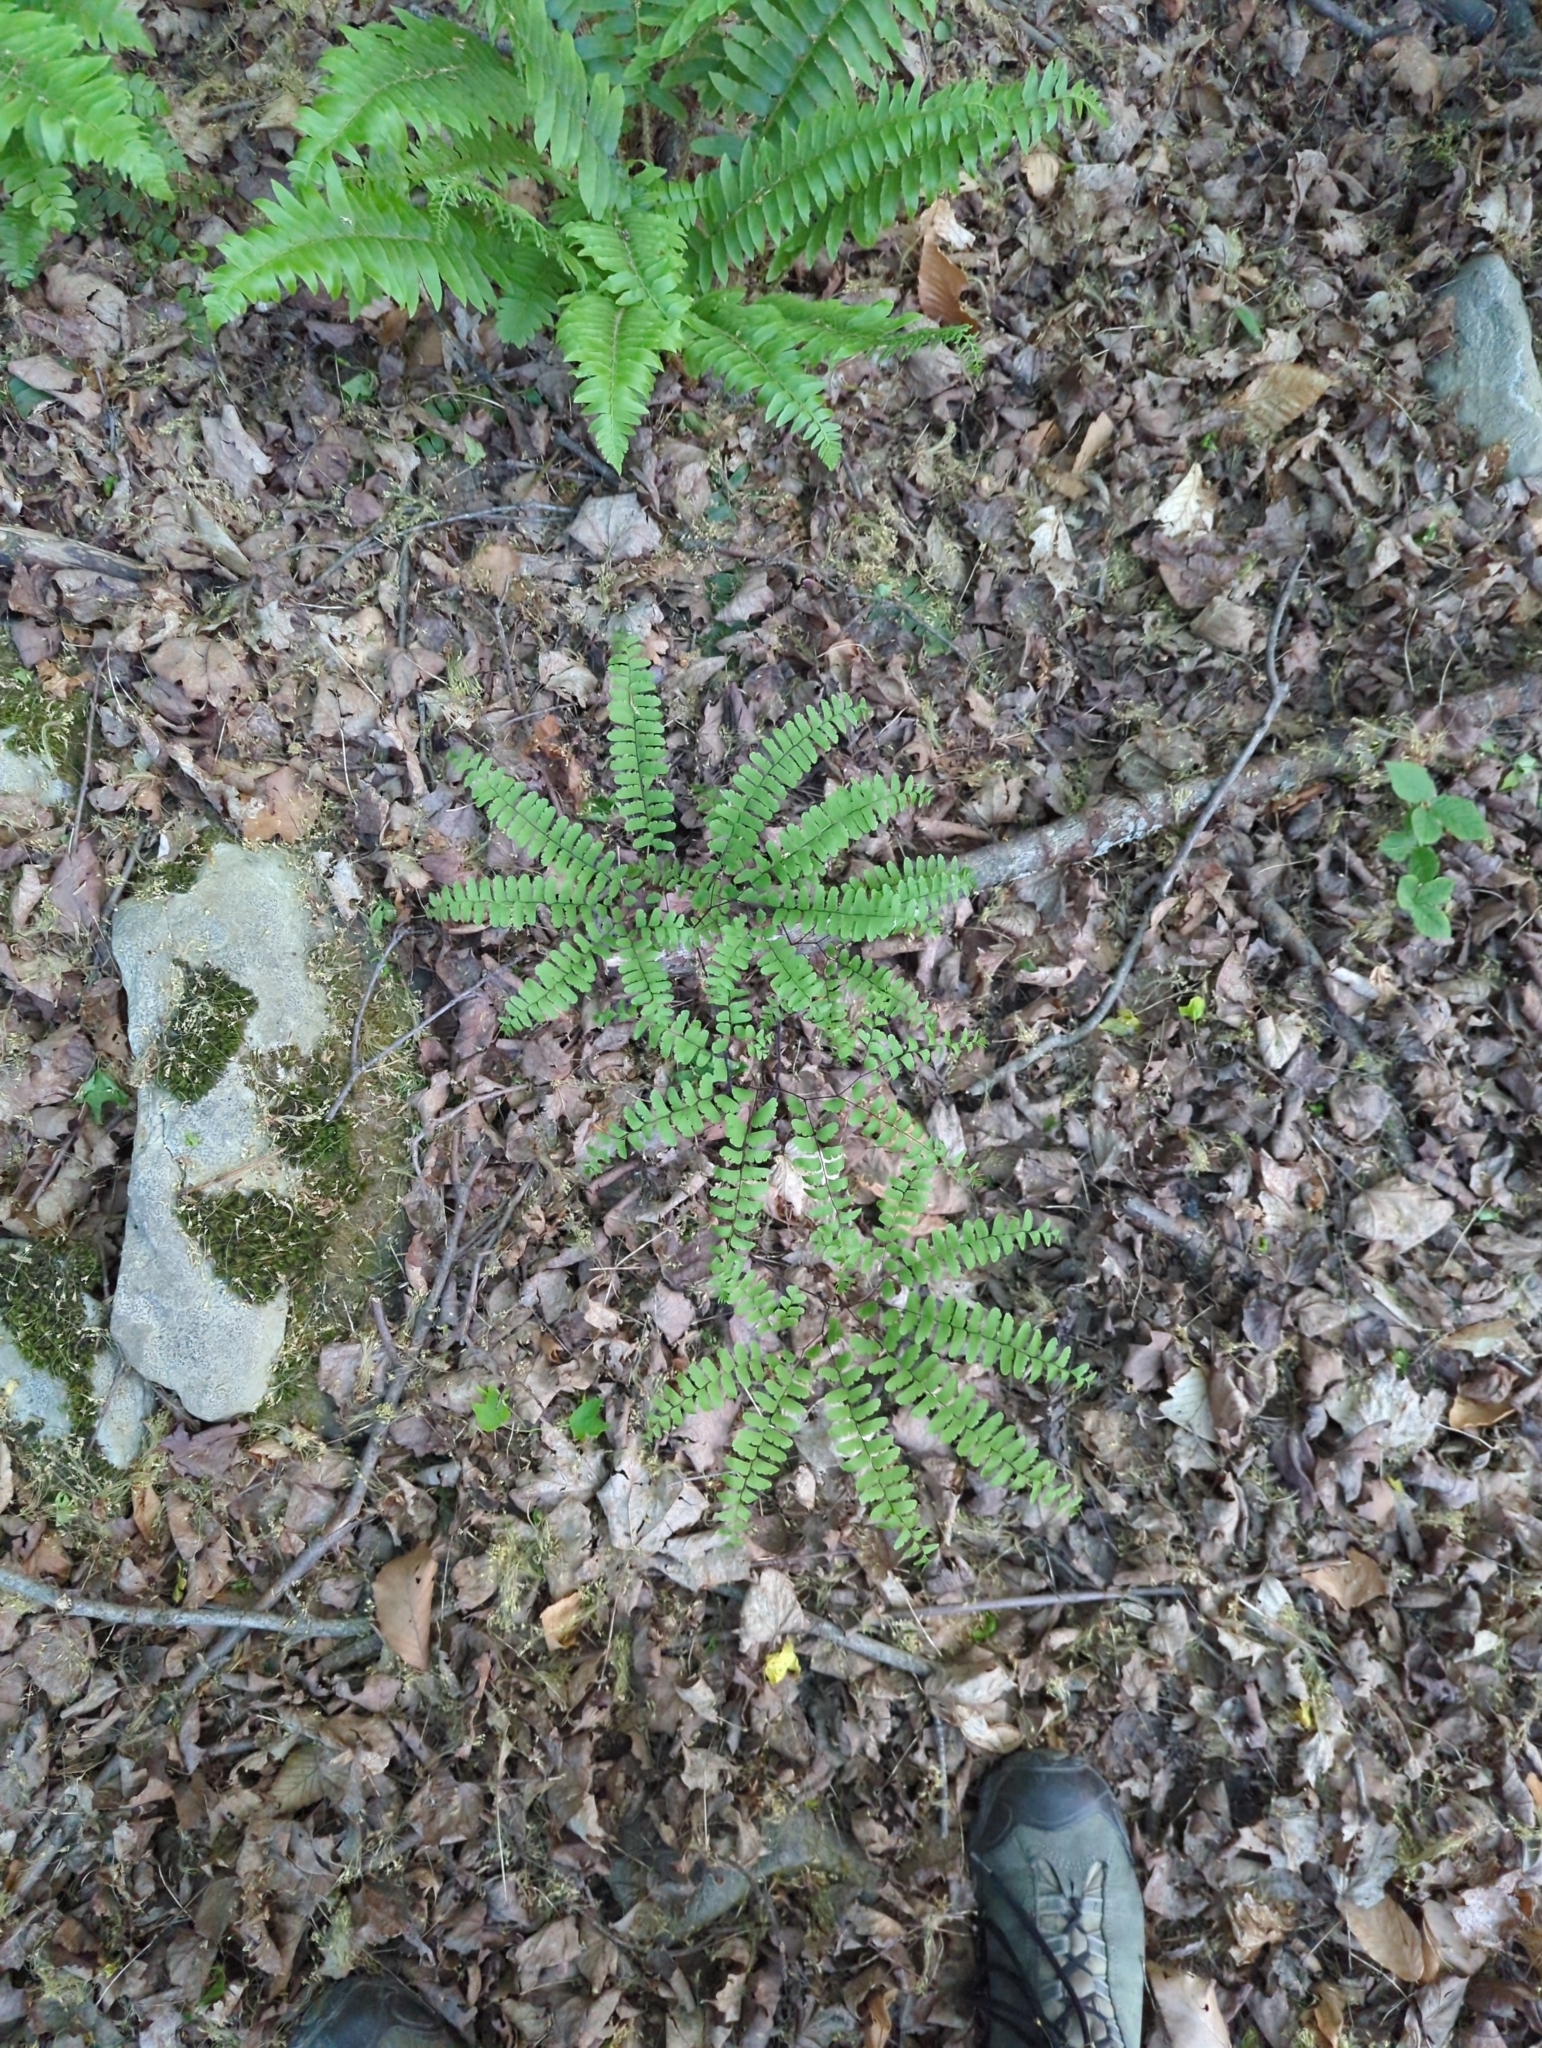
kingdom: Plantae
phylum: Tracheophyta
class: Polypodiopsida
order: Polypodiales
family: Pteridaceae
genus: Adiantum
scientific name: Adiantum pedatum
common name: Five-finger fern
